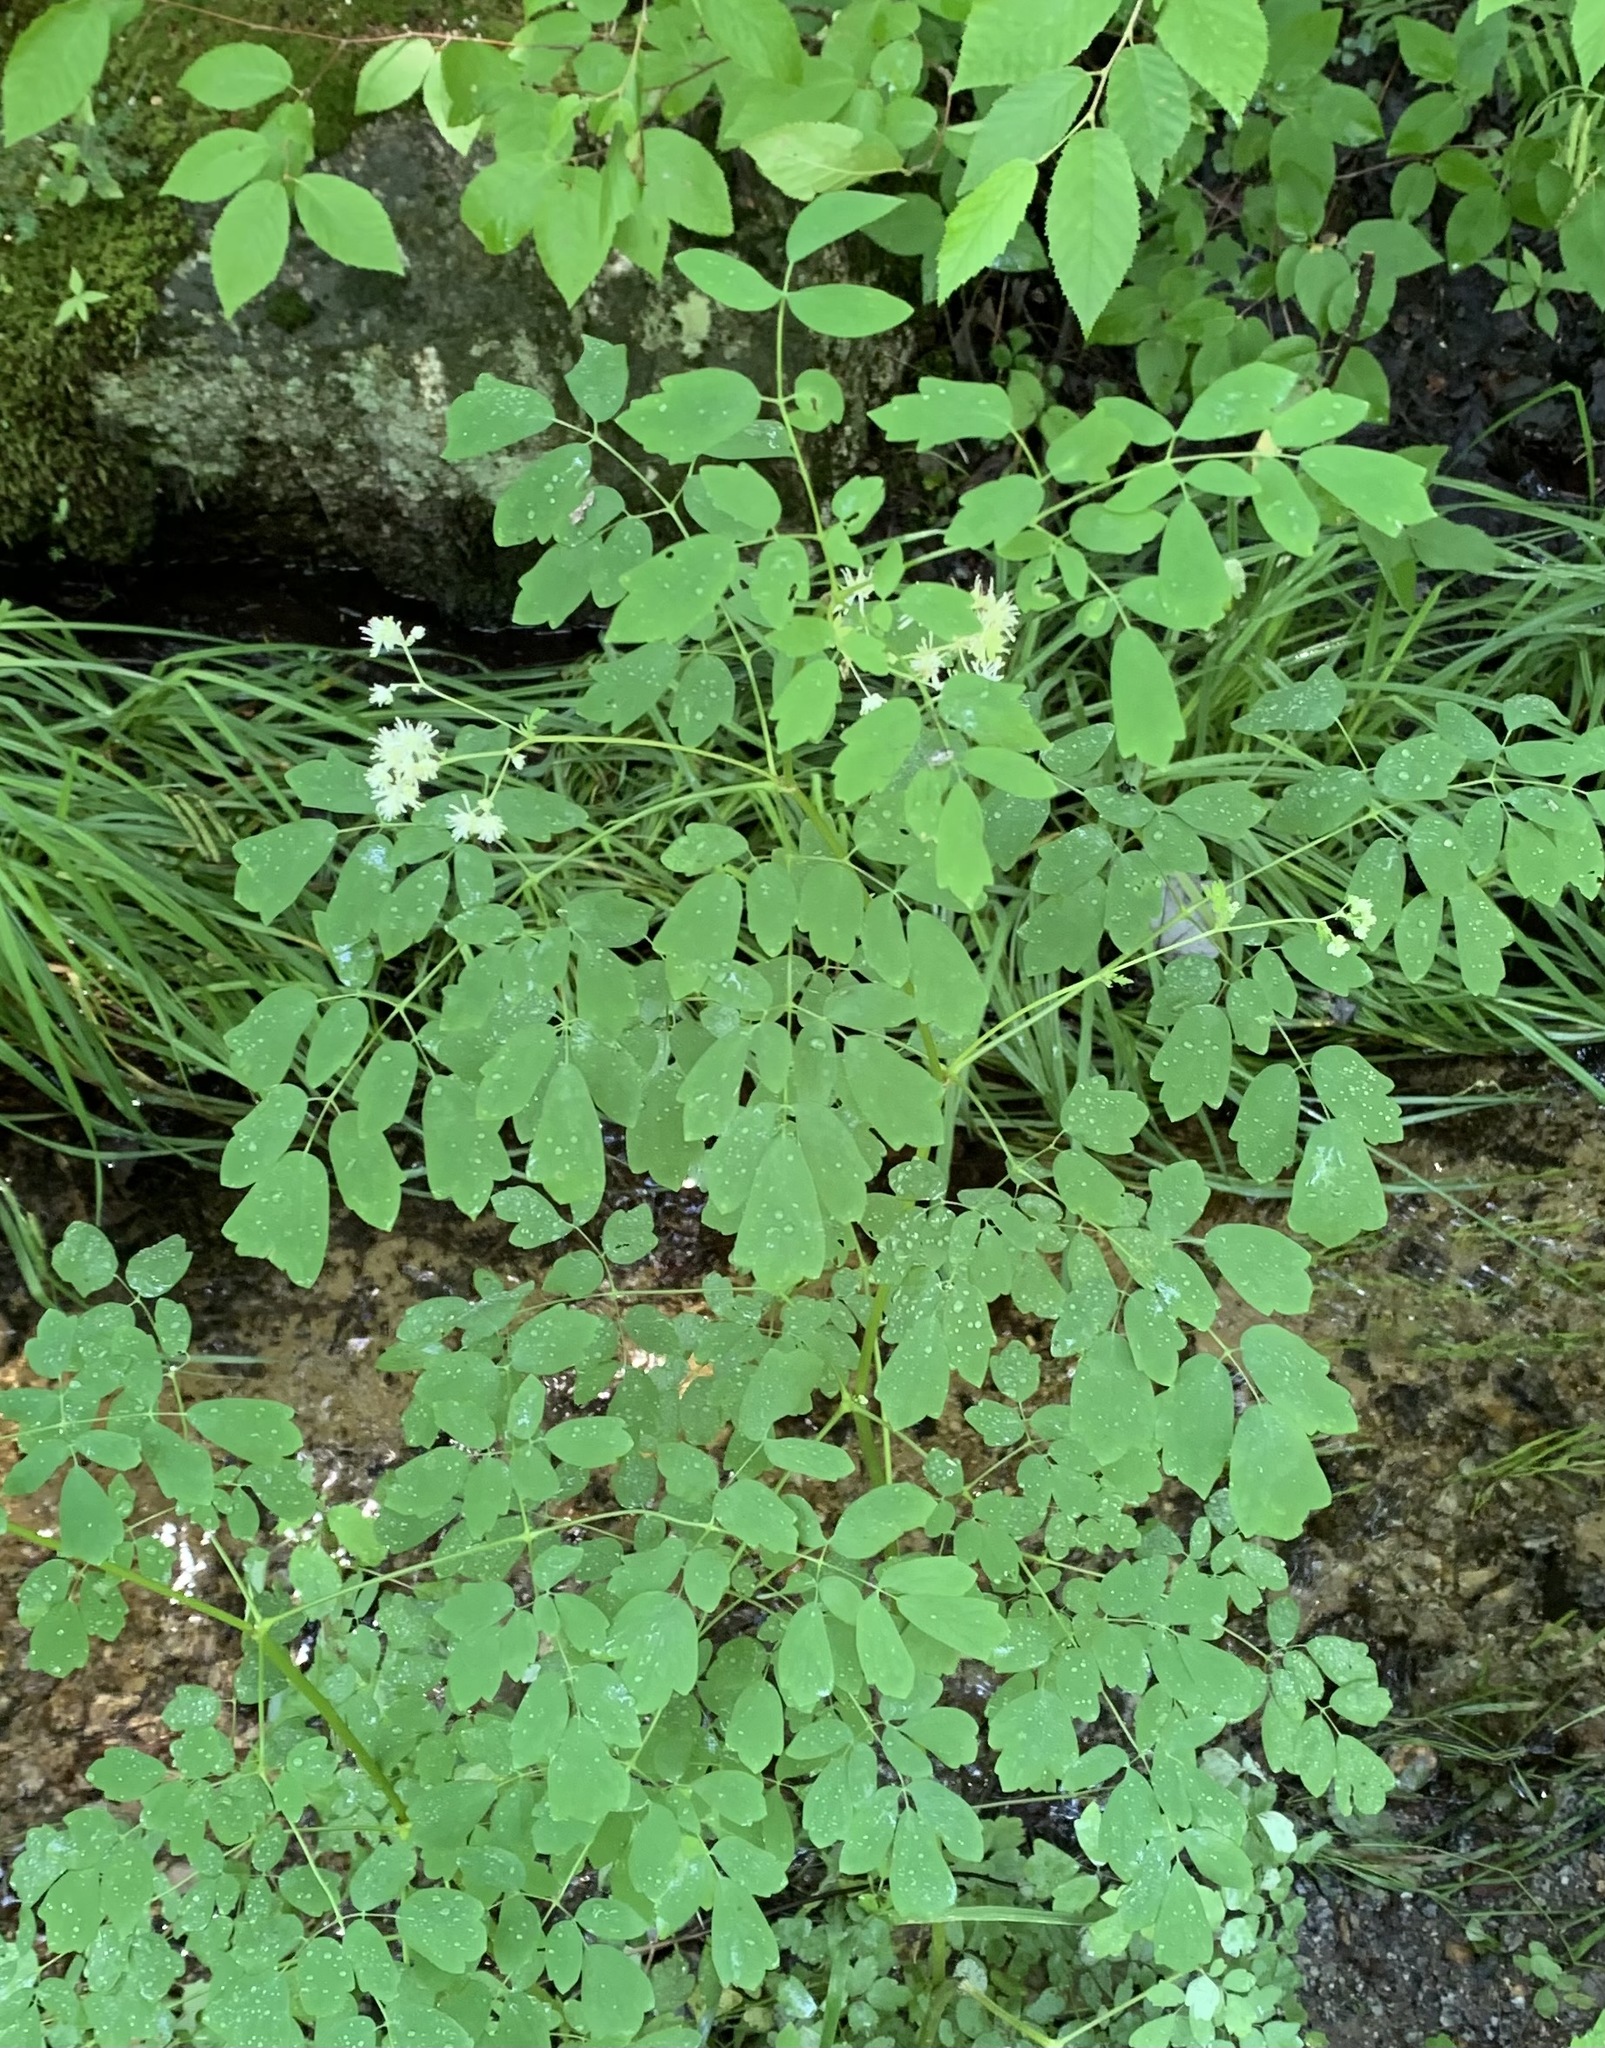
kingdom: Plantae
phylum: Tracheophyta
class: Magnoliopsida
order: Ranunculales
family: Ranunculaceae
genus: Thalictrum
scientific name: Thalictrum pubescens
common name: King-of-the-meadow
